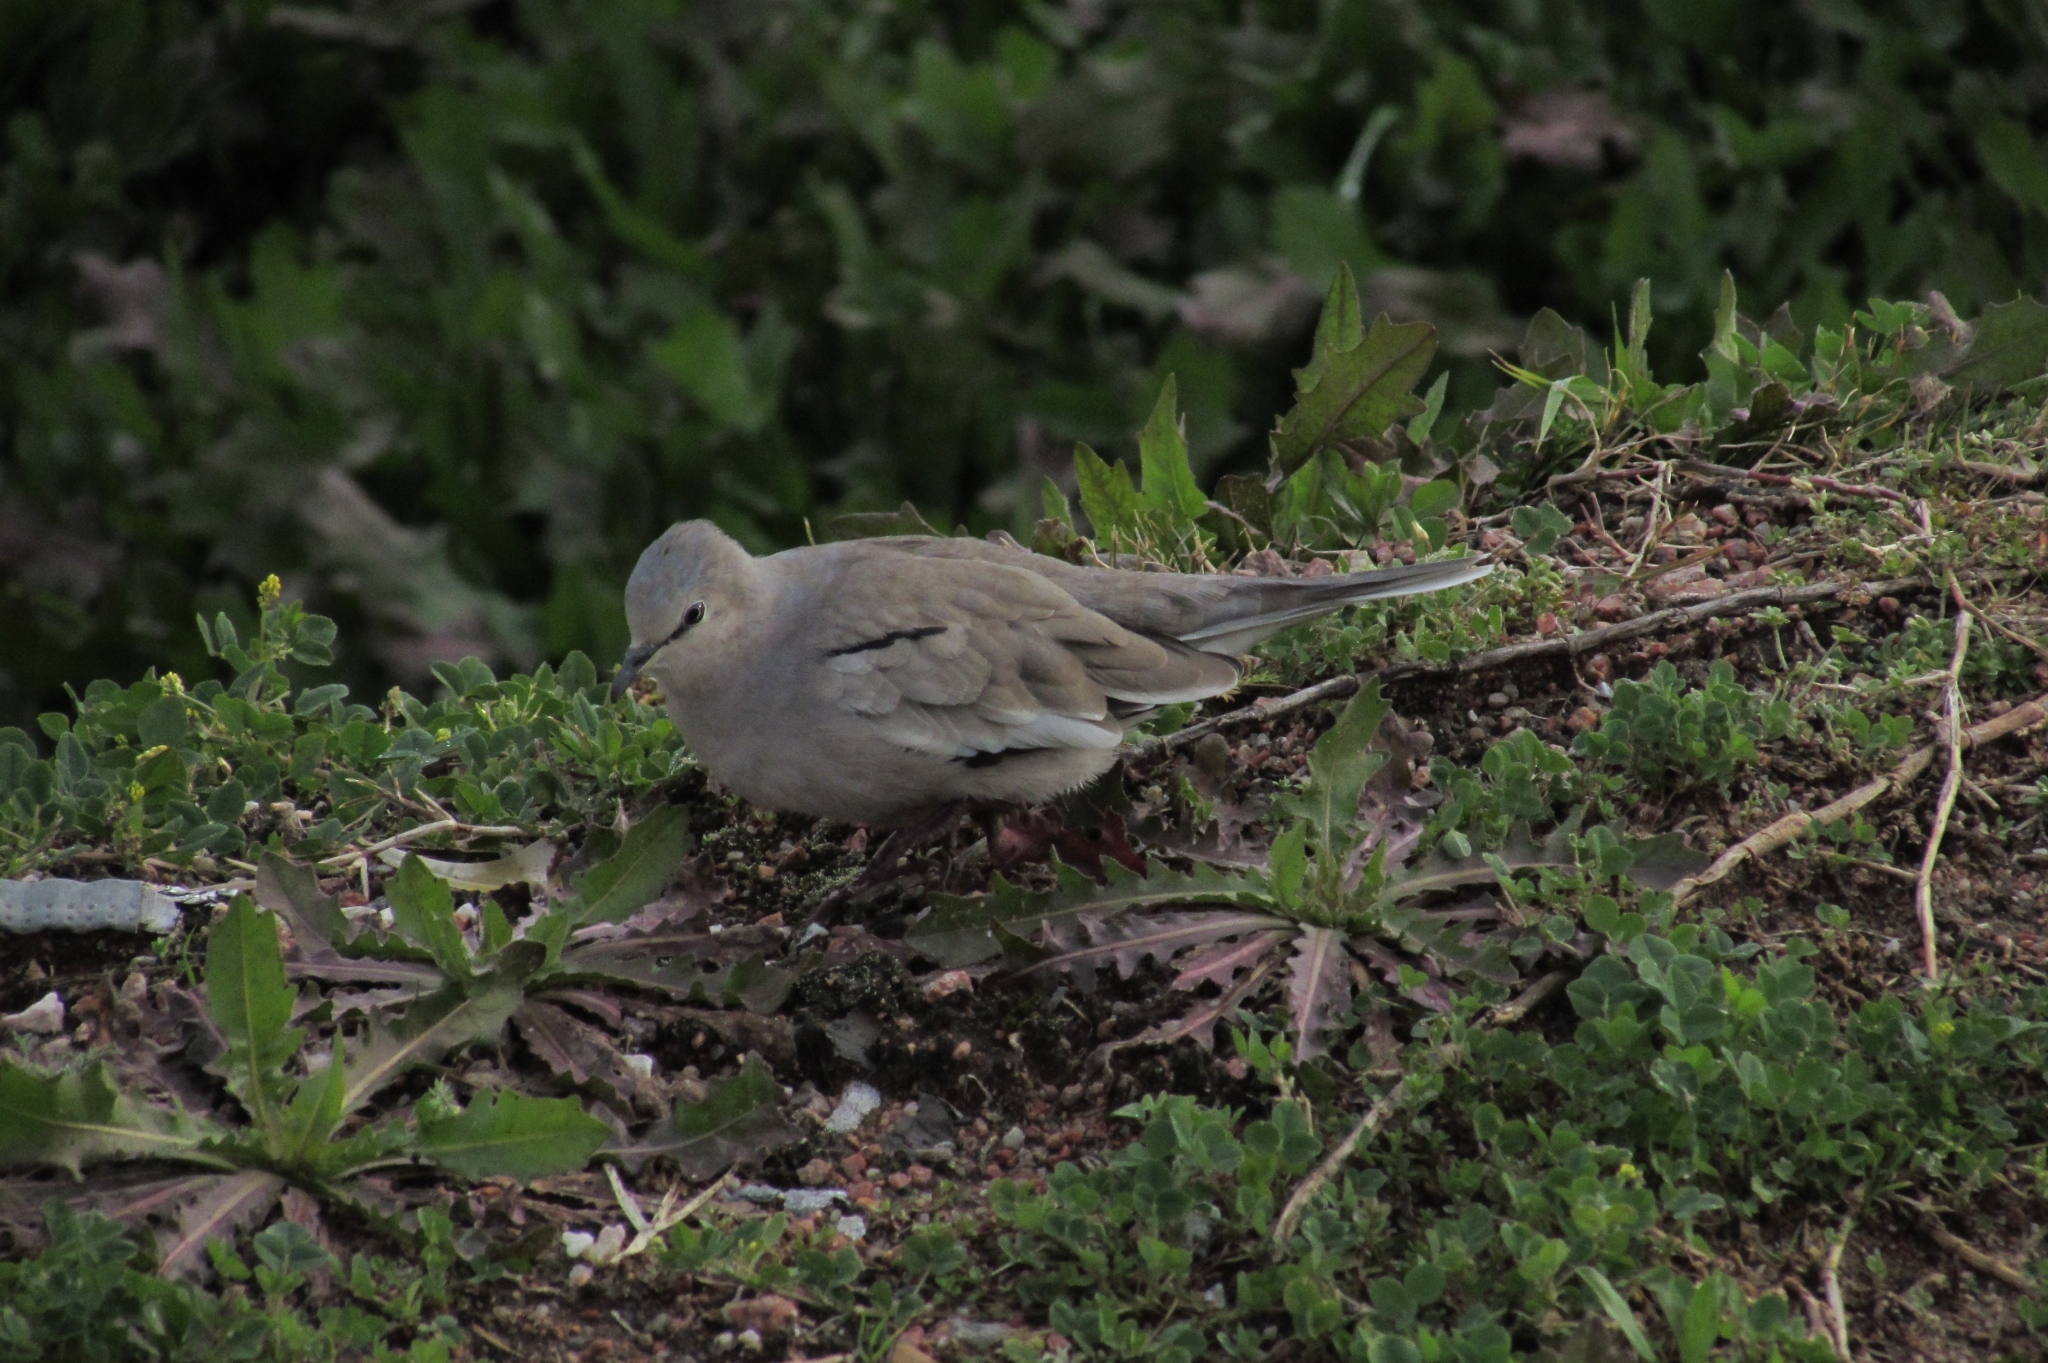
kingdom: Animalia
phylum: Chordata
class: Aves
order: Columbiformes
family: Columbidae
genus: Columbina
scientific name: Columbina picui
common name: Picui ground dove
